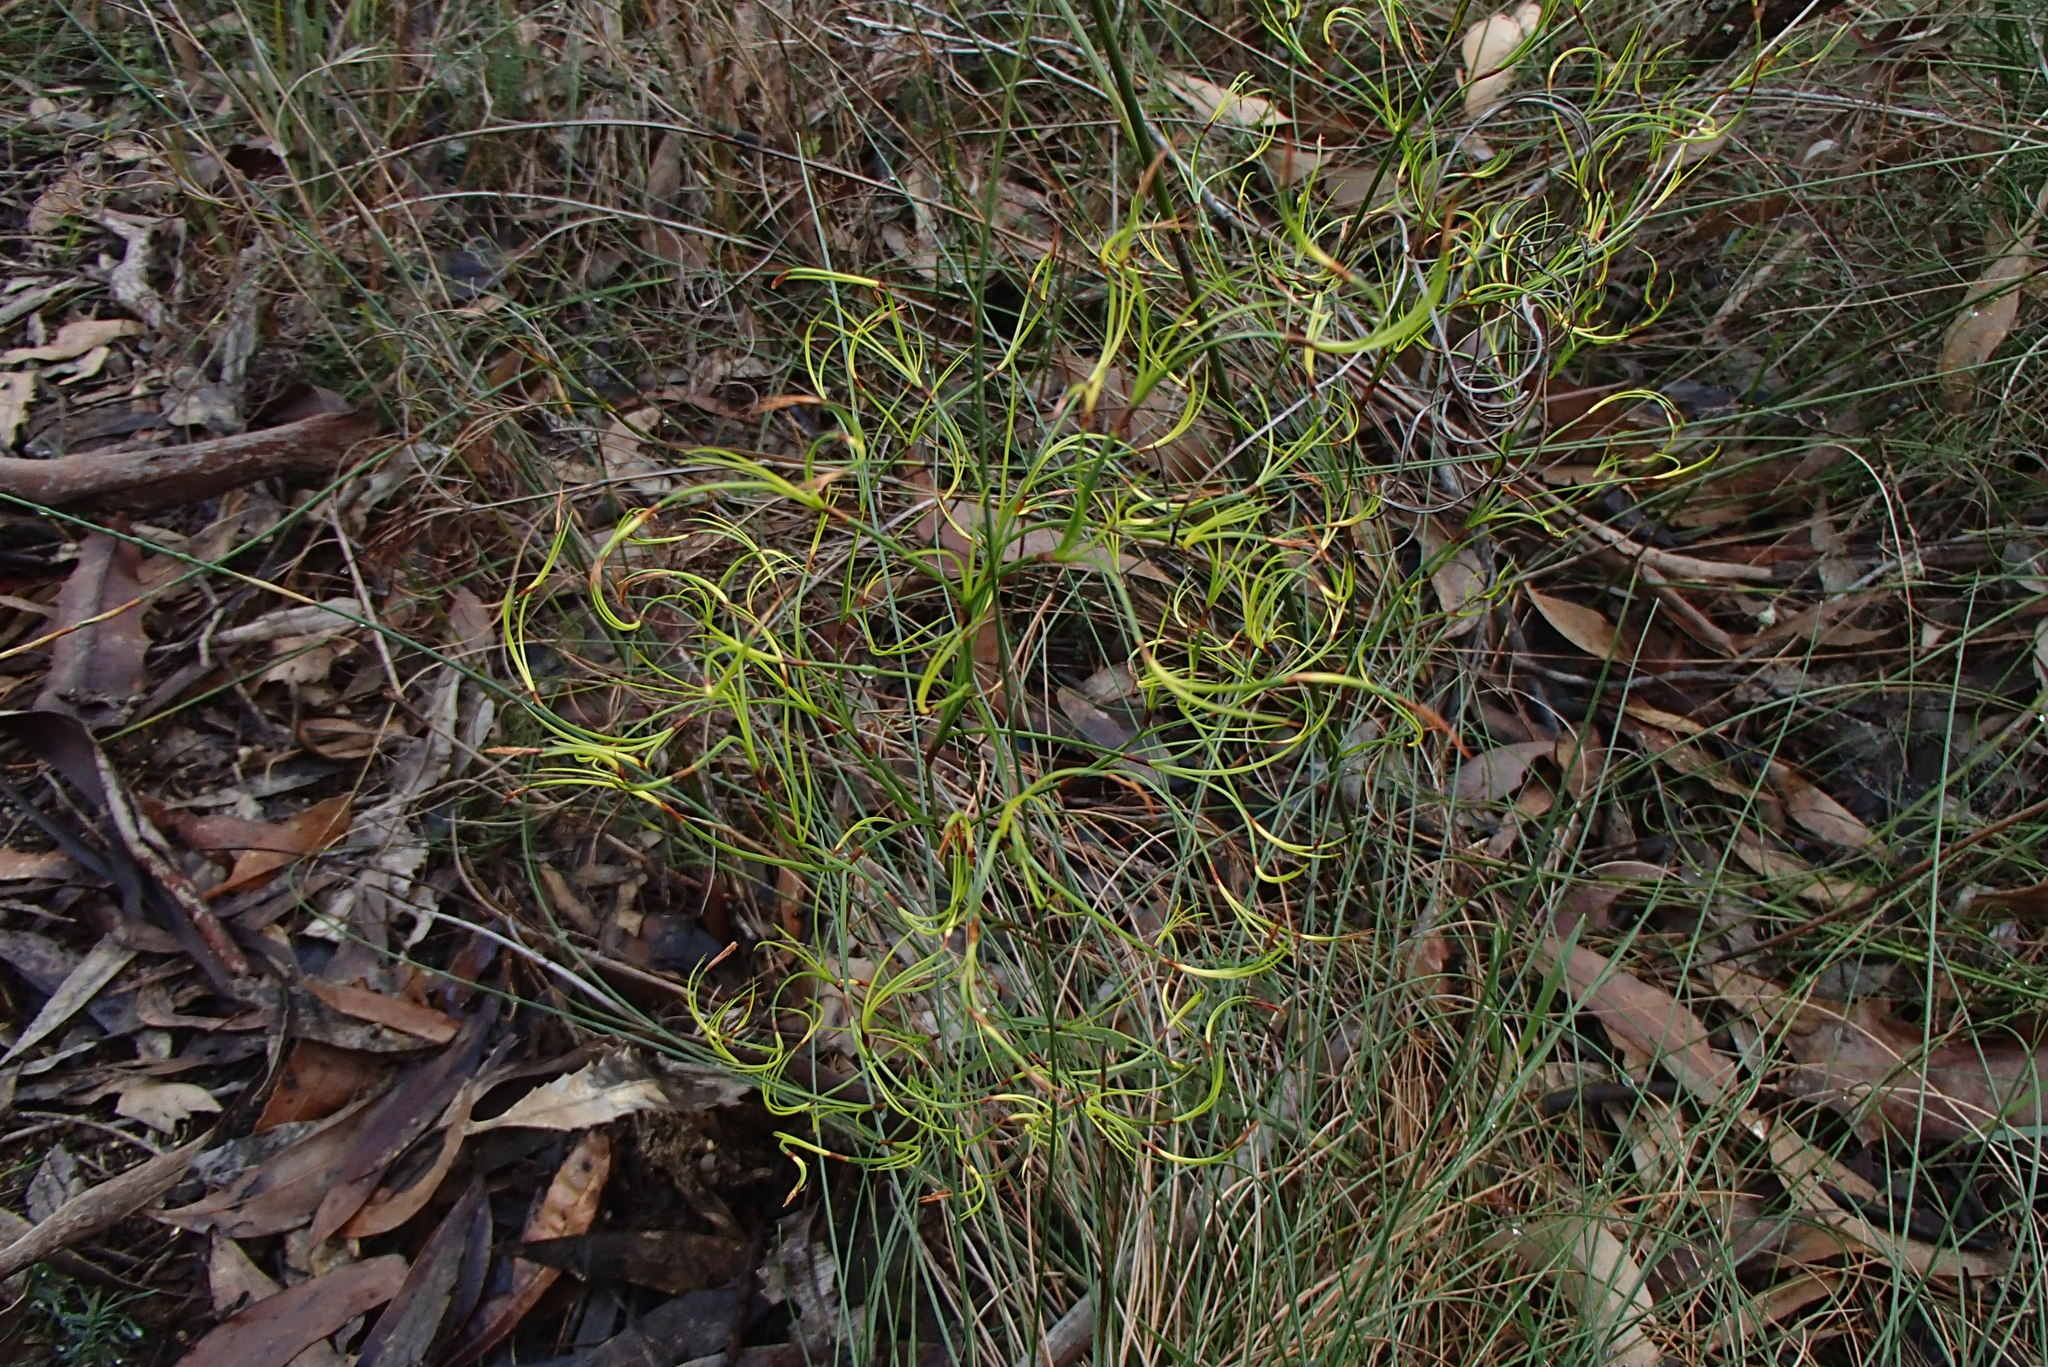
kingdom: Plantae
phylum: Tracheophyta
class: Liliopsida
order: Poales
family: Cyperaceae
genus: Caustis
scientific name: Caustis flexuosa
